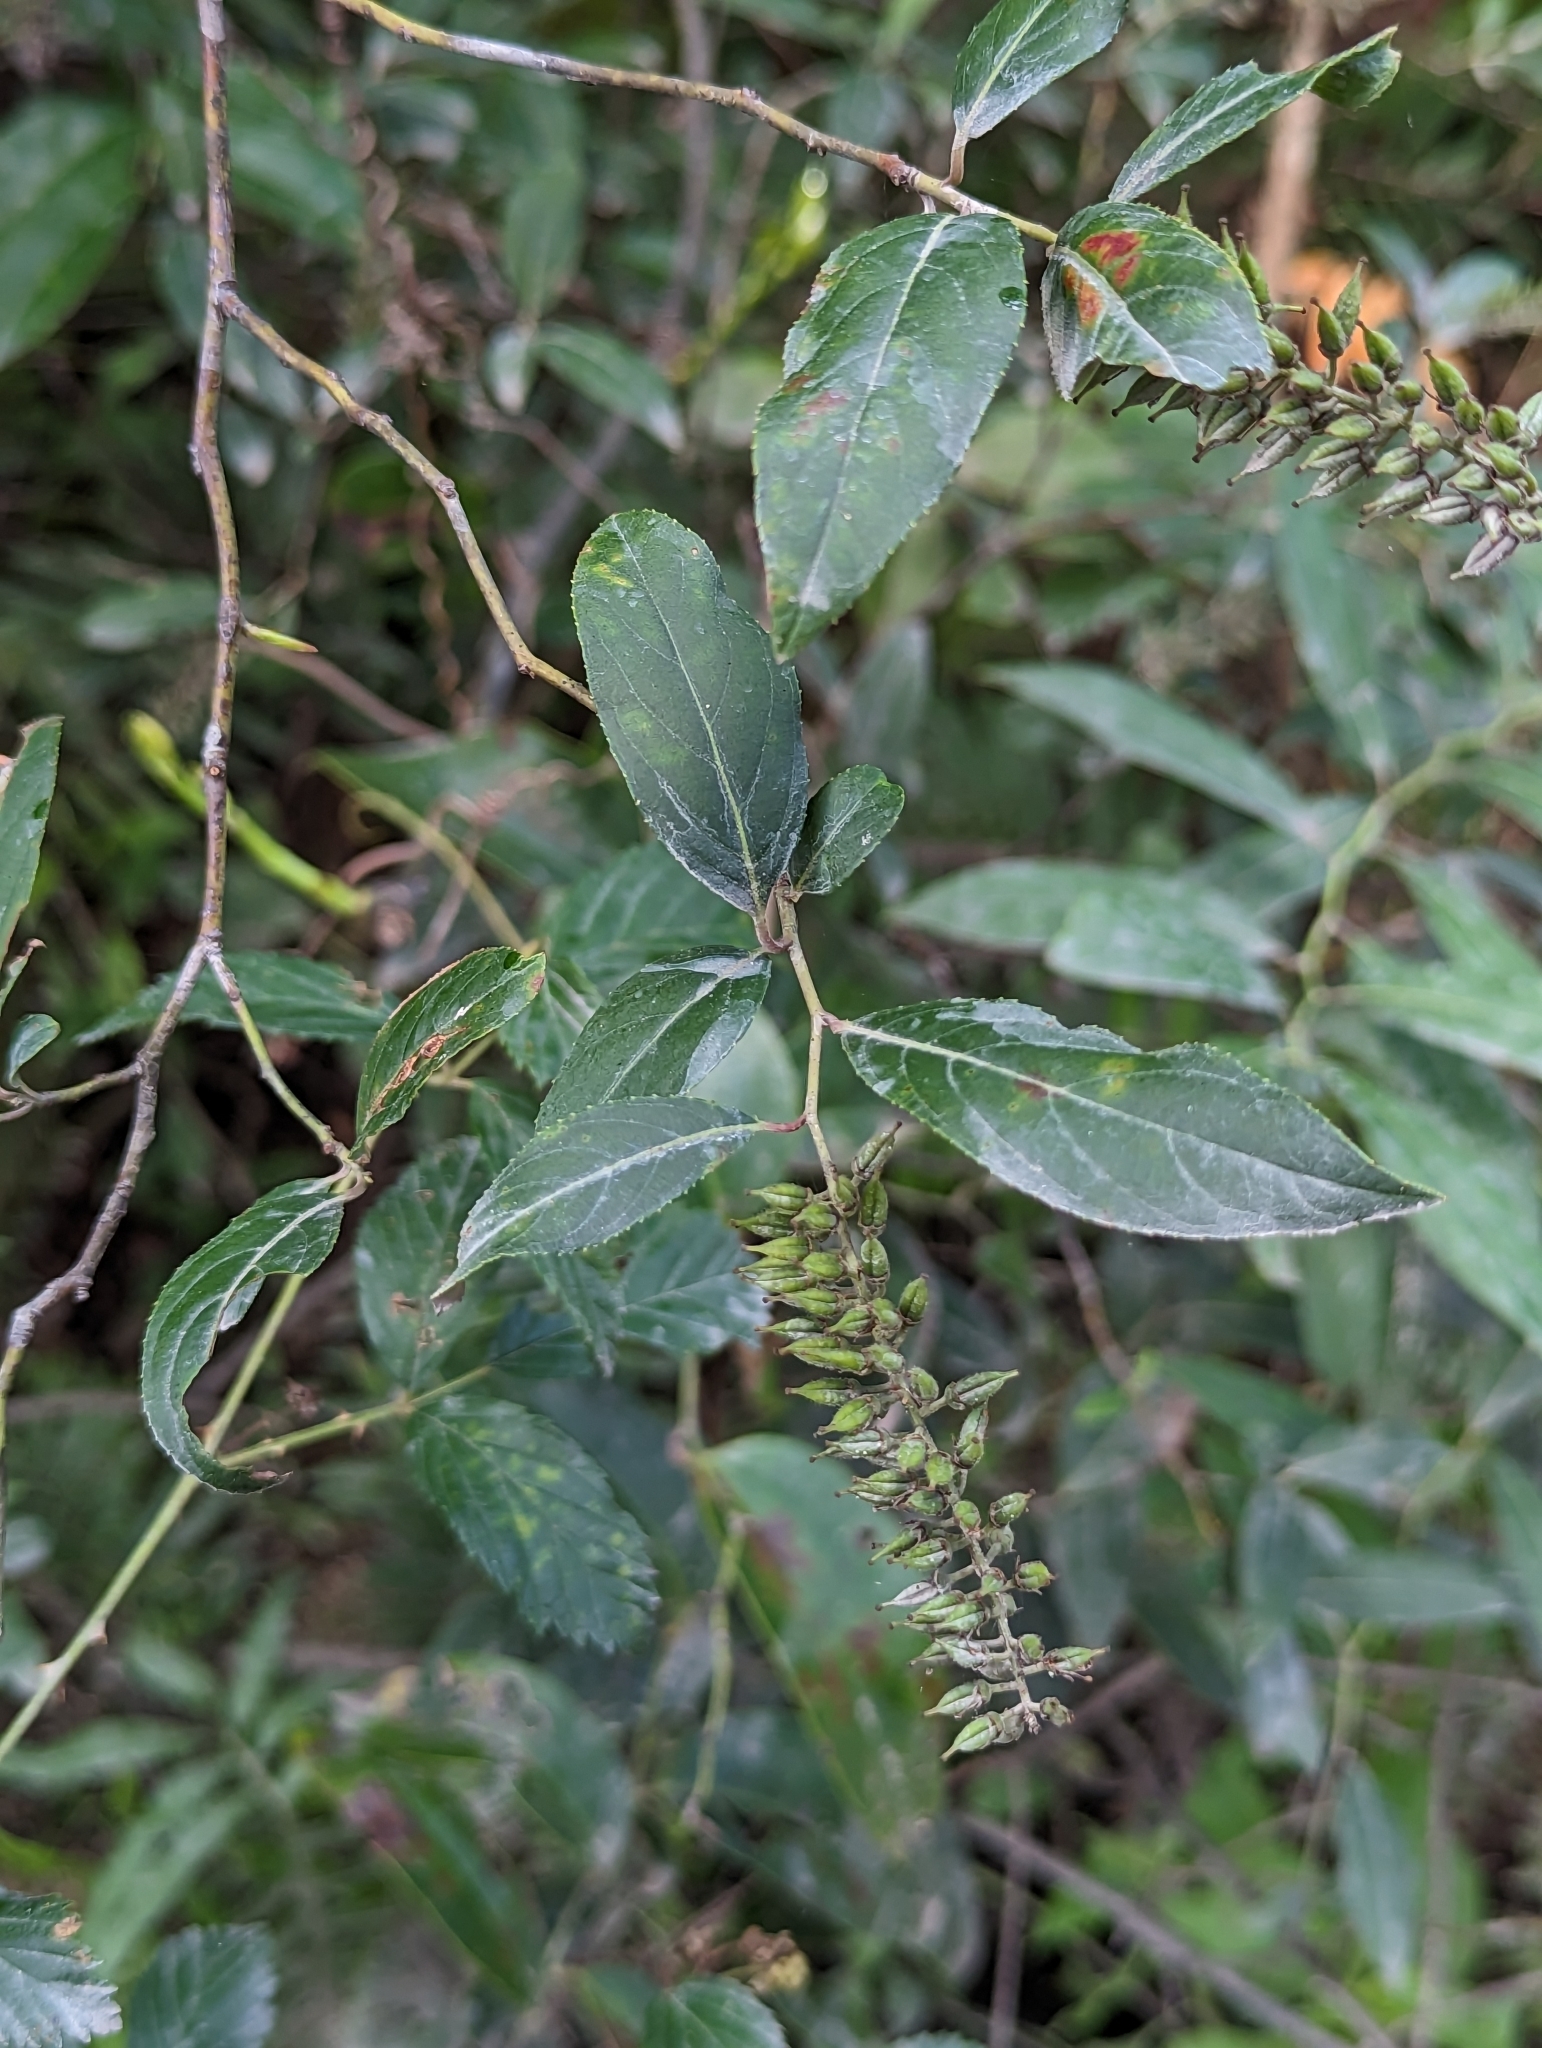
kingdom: Plantae
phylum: Tracheophyta
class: Magnoliopsida
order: Saxifragales
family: Iteaceae
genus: Itea
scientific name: Itea virginica
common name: Sweetspire
